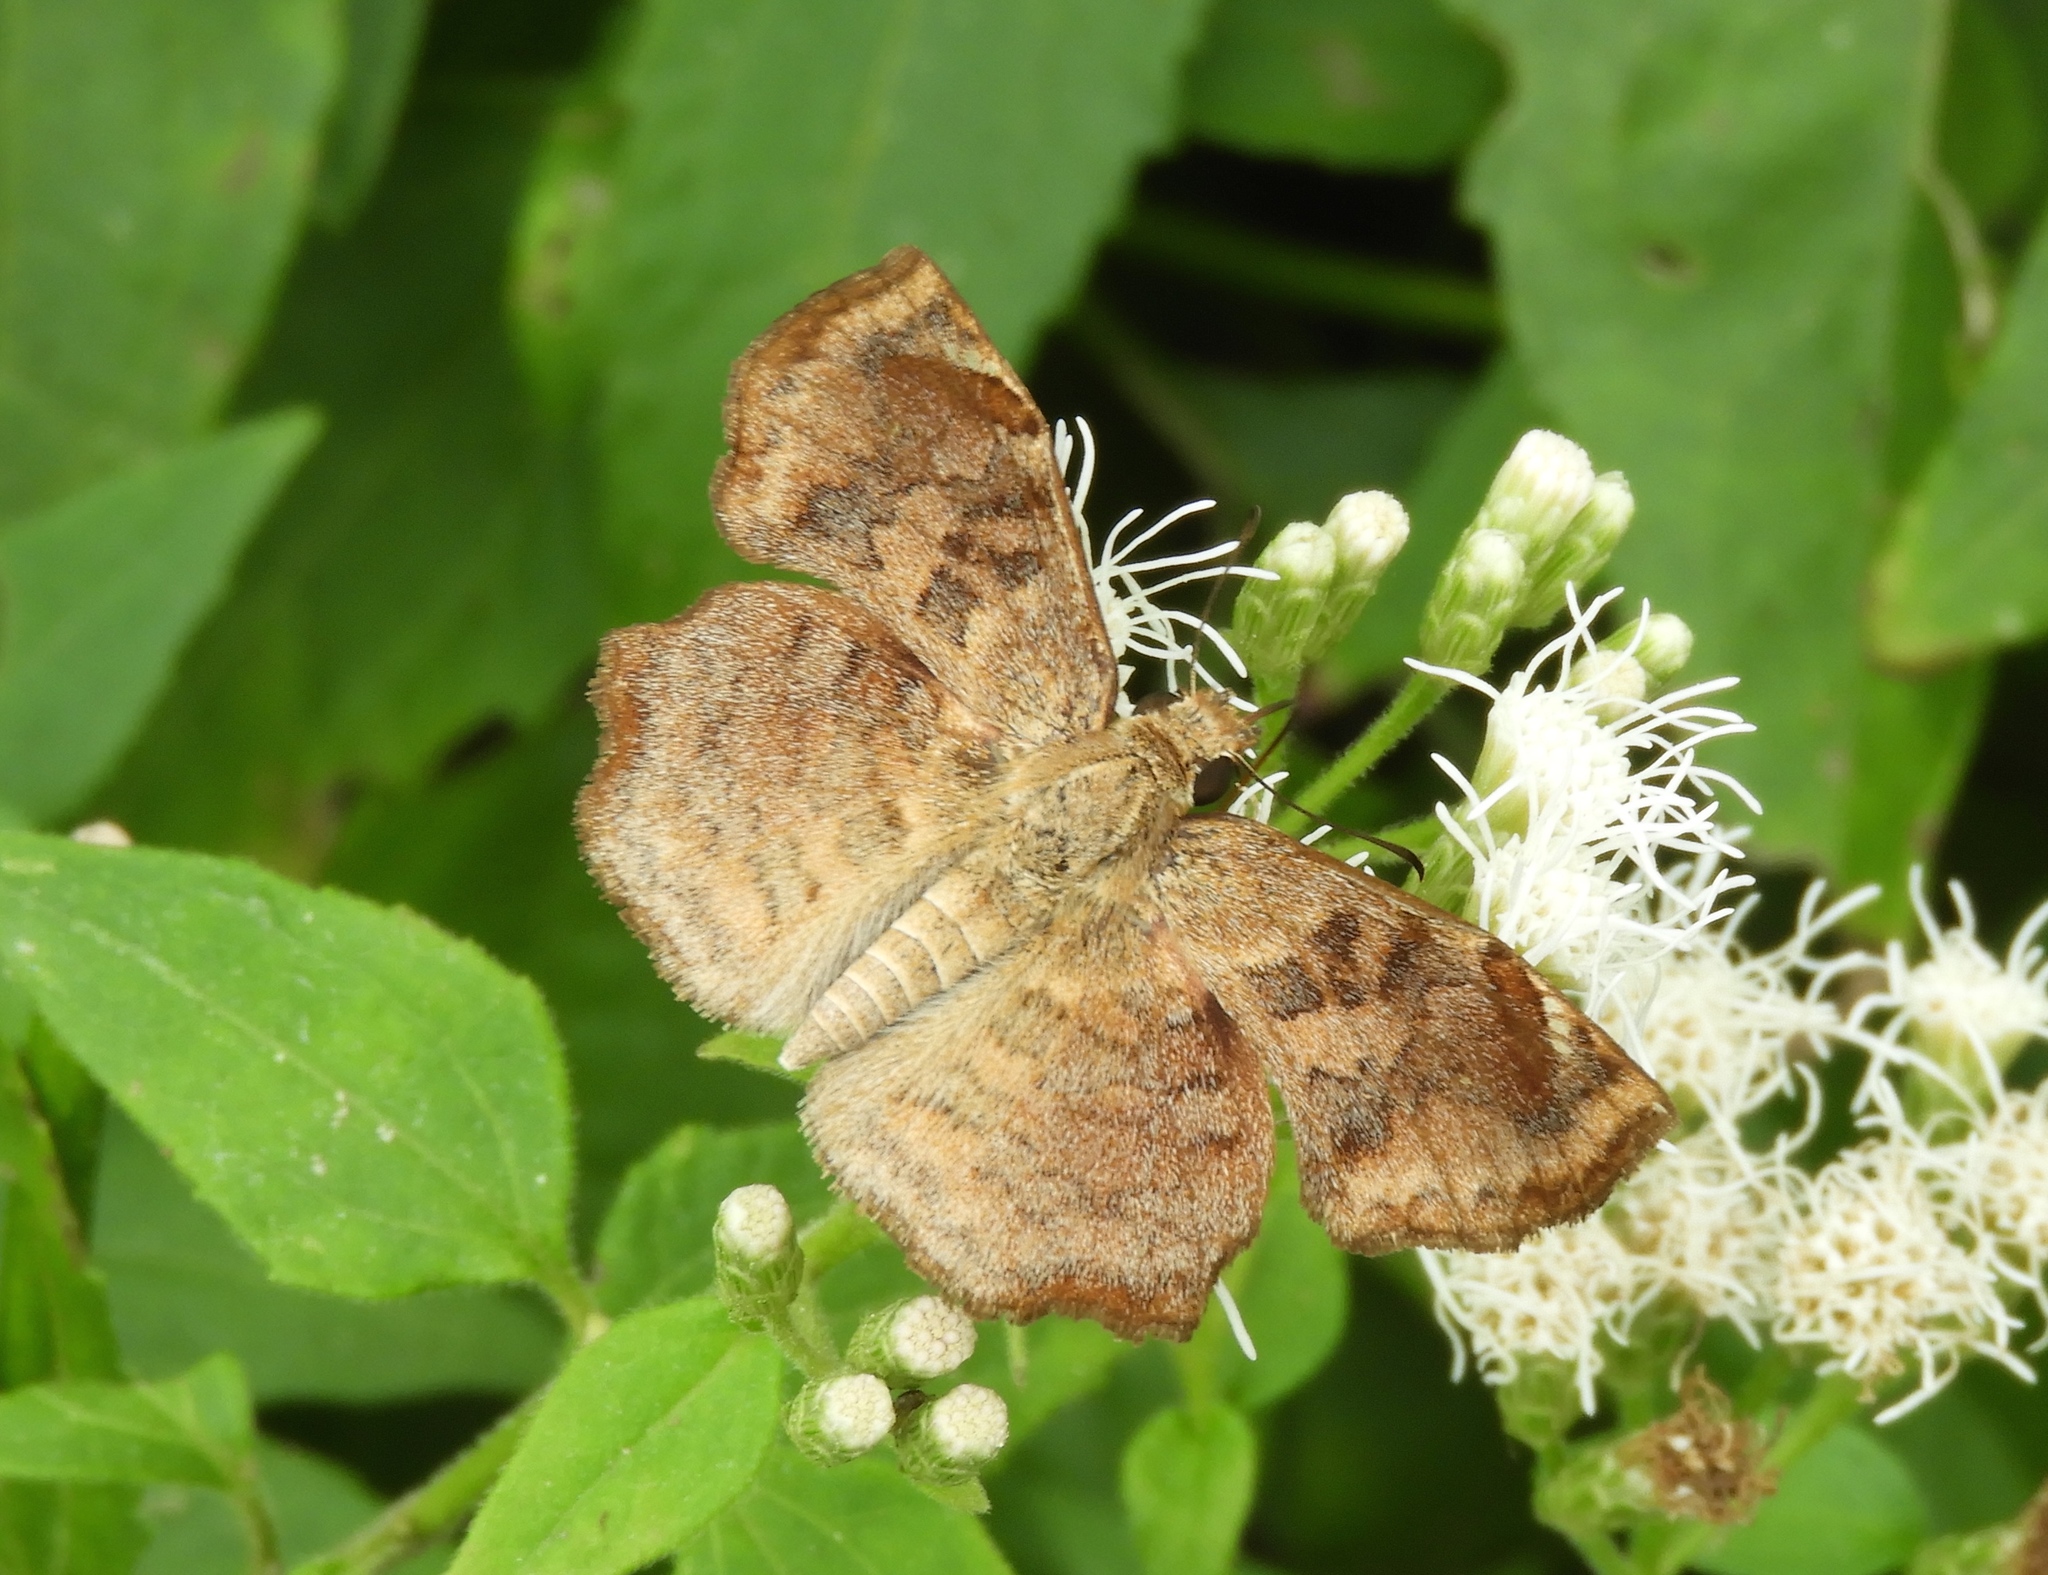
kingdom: Animalia
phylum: Arthropoda
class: Insecta
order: Lepidoptera
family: Hesperiidae
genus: Antigonus
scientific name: Antigonus erosus
